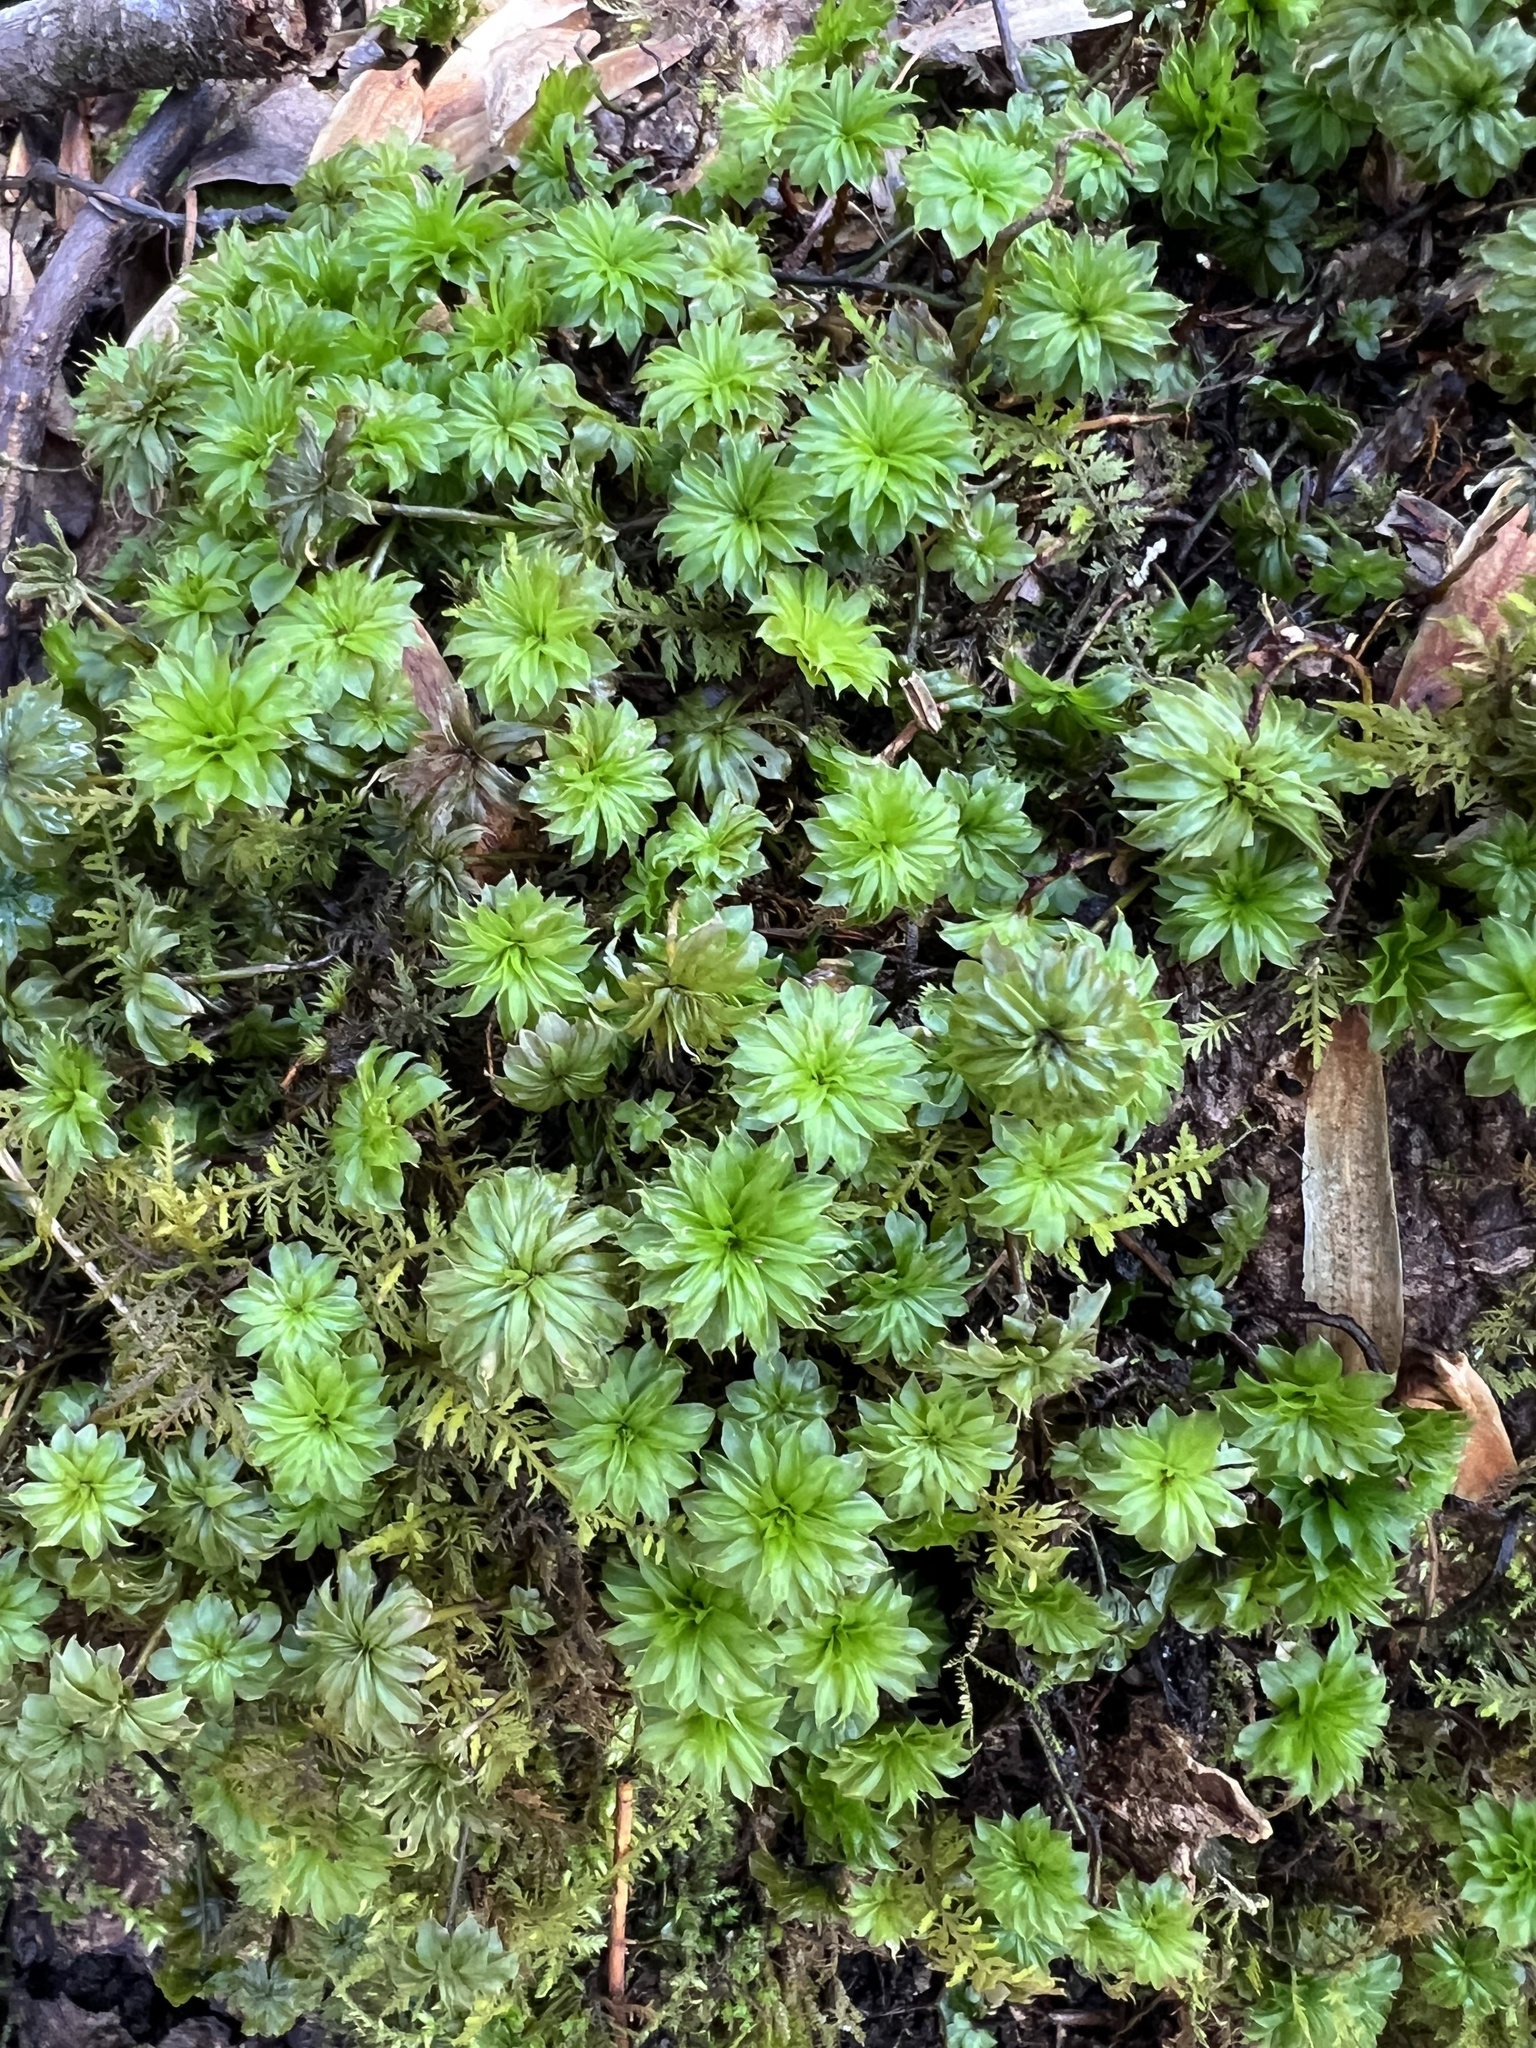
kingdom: Plantae
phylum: Bryophyta
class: Bryopsida
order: Bryales
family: Bryaceae
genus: Rhodobryum
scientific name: Rhodobryum ontariense
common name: Ontario rhodobryum moss
